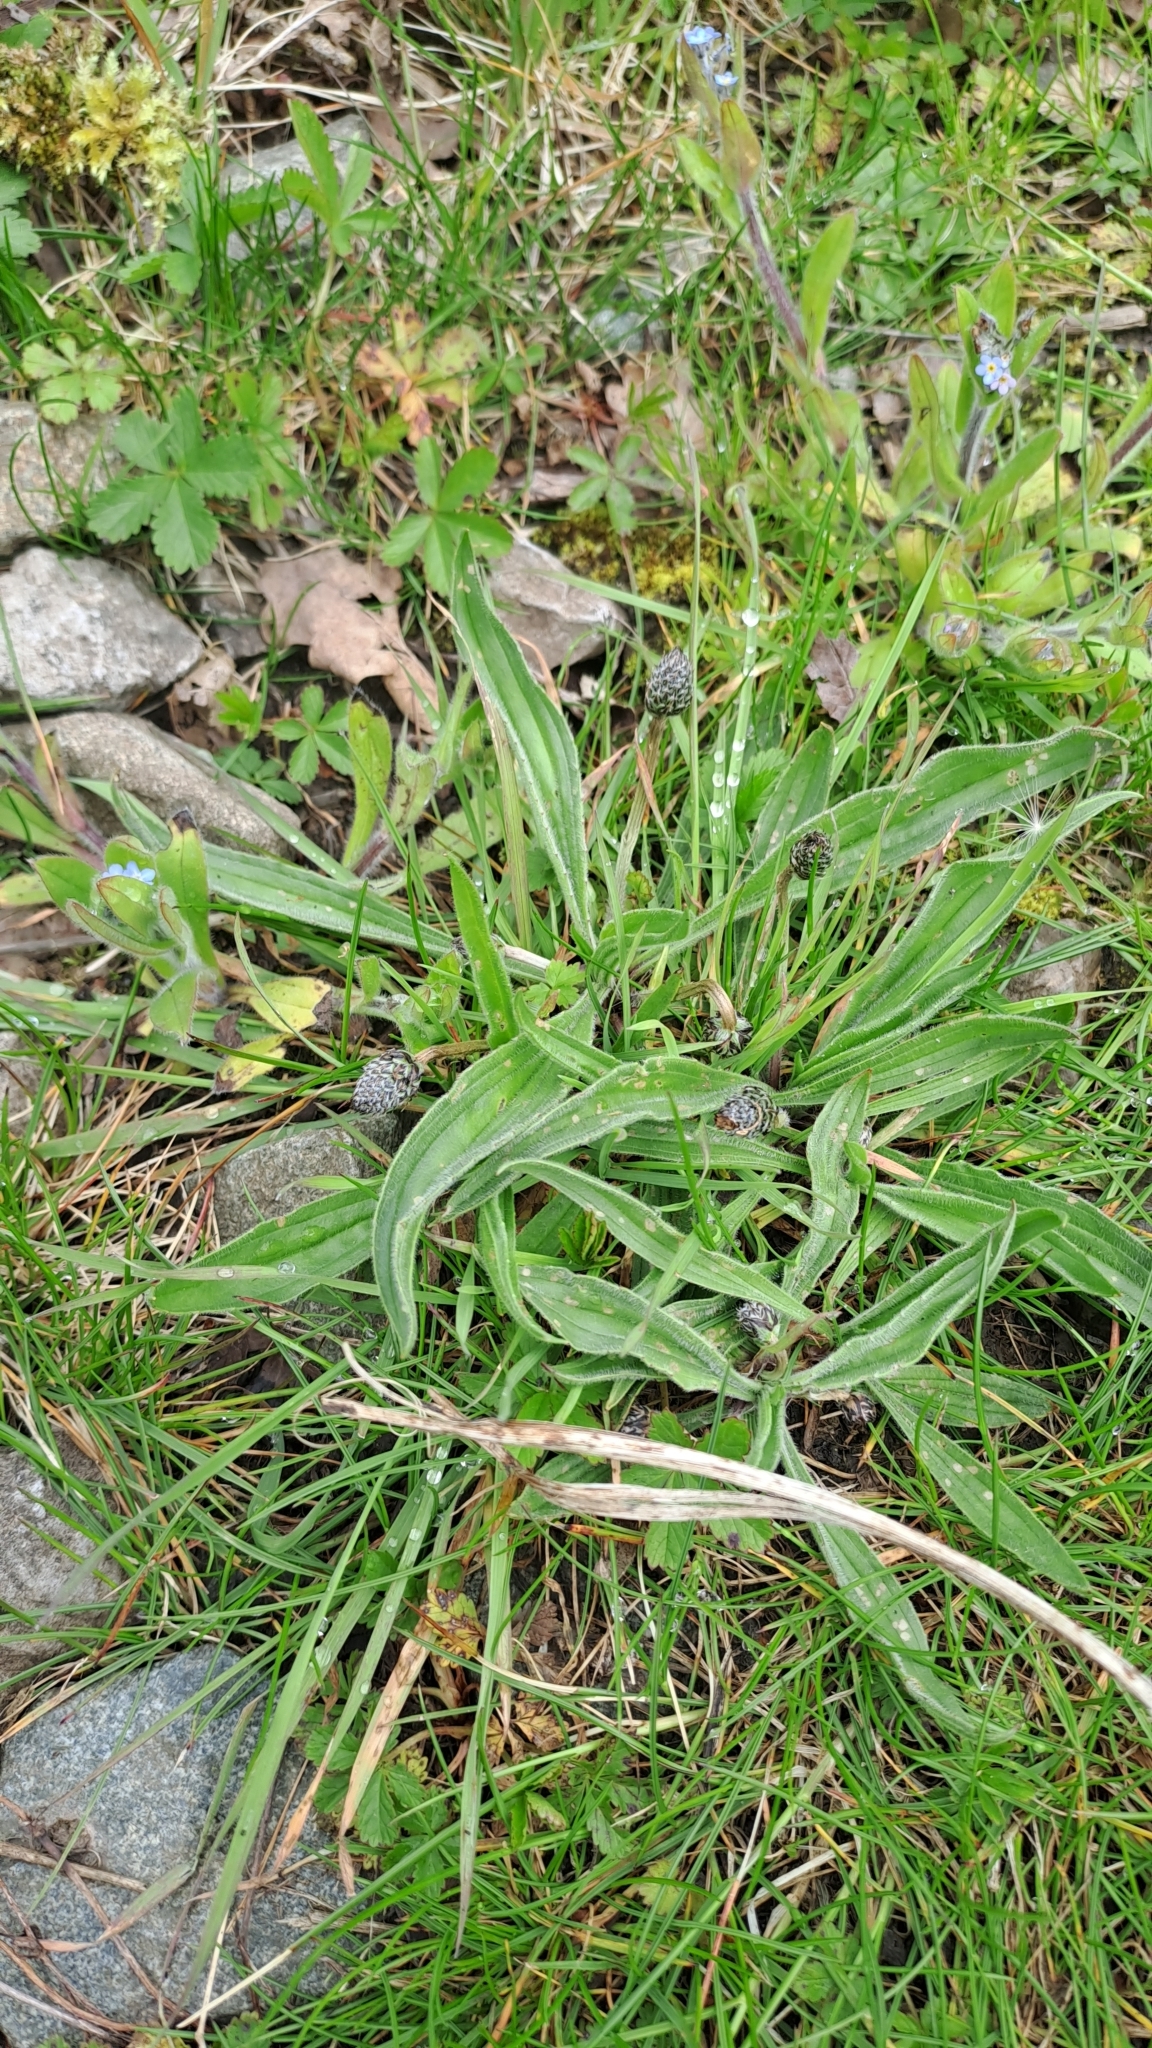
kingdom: Plantae
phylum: Tracheophyta
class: Magnoliopsida
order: Lamiales
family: Plantaginaceae
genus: Plantago
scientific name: Plantago lanceolata
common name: Ribwort plantain
